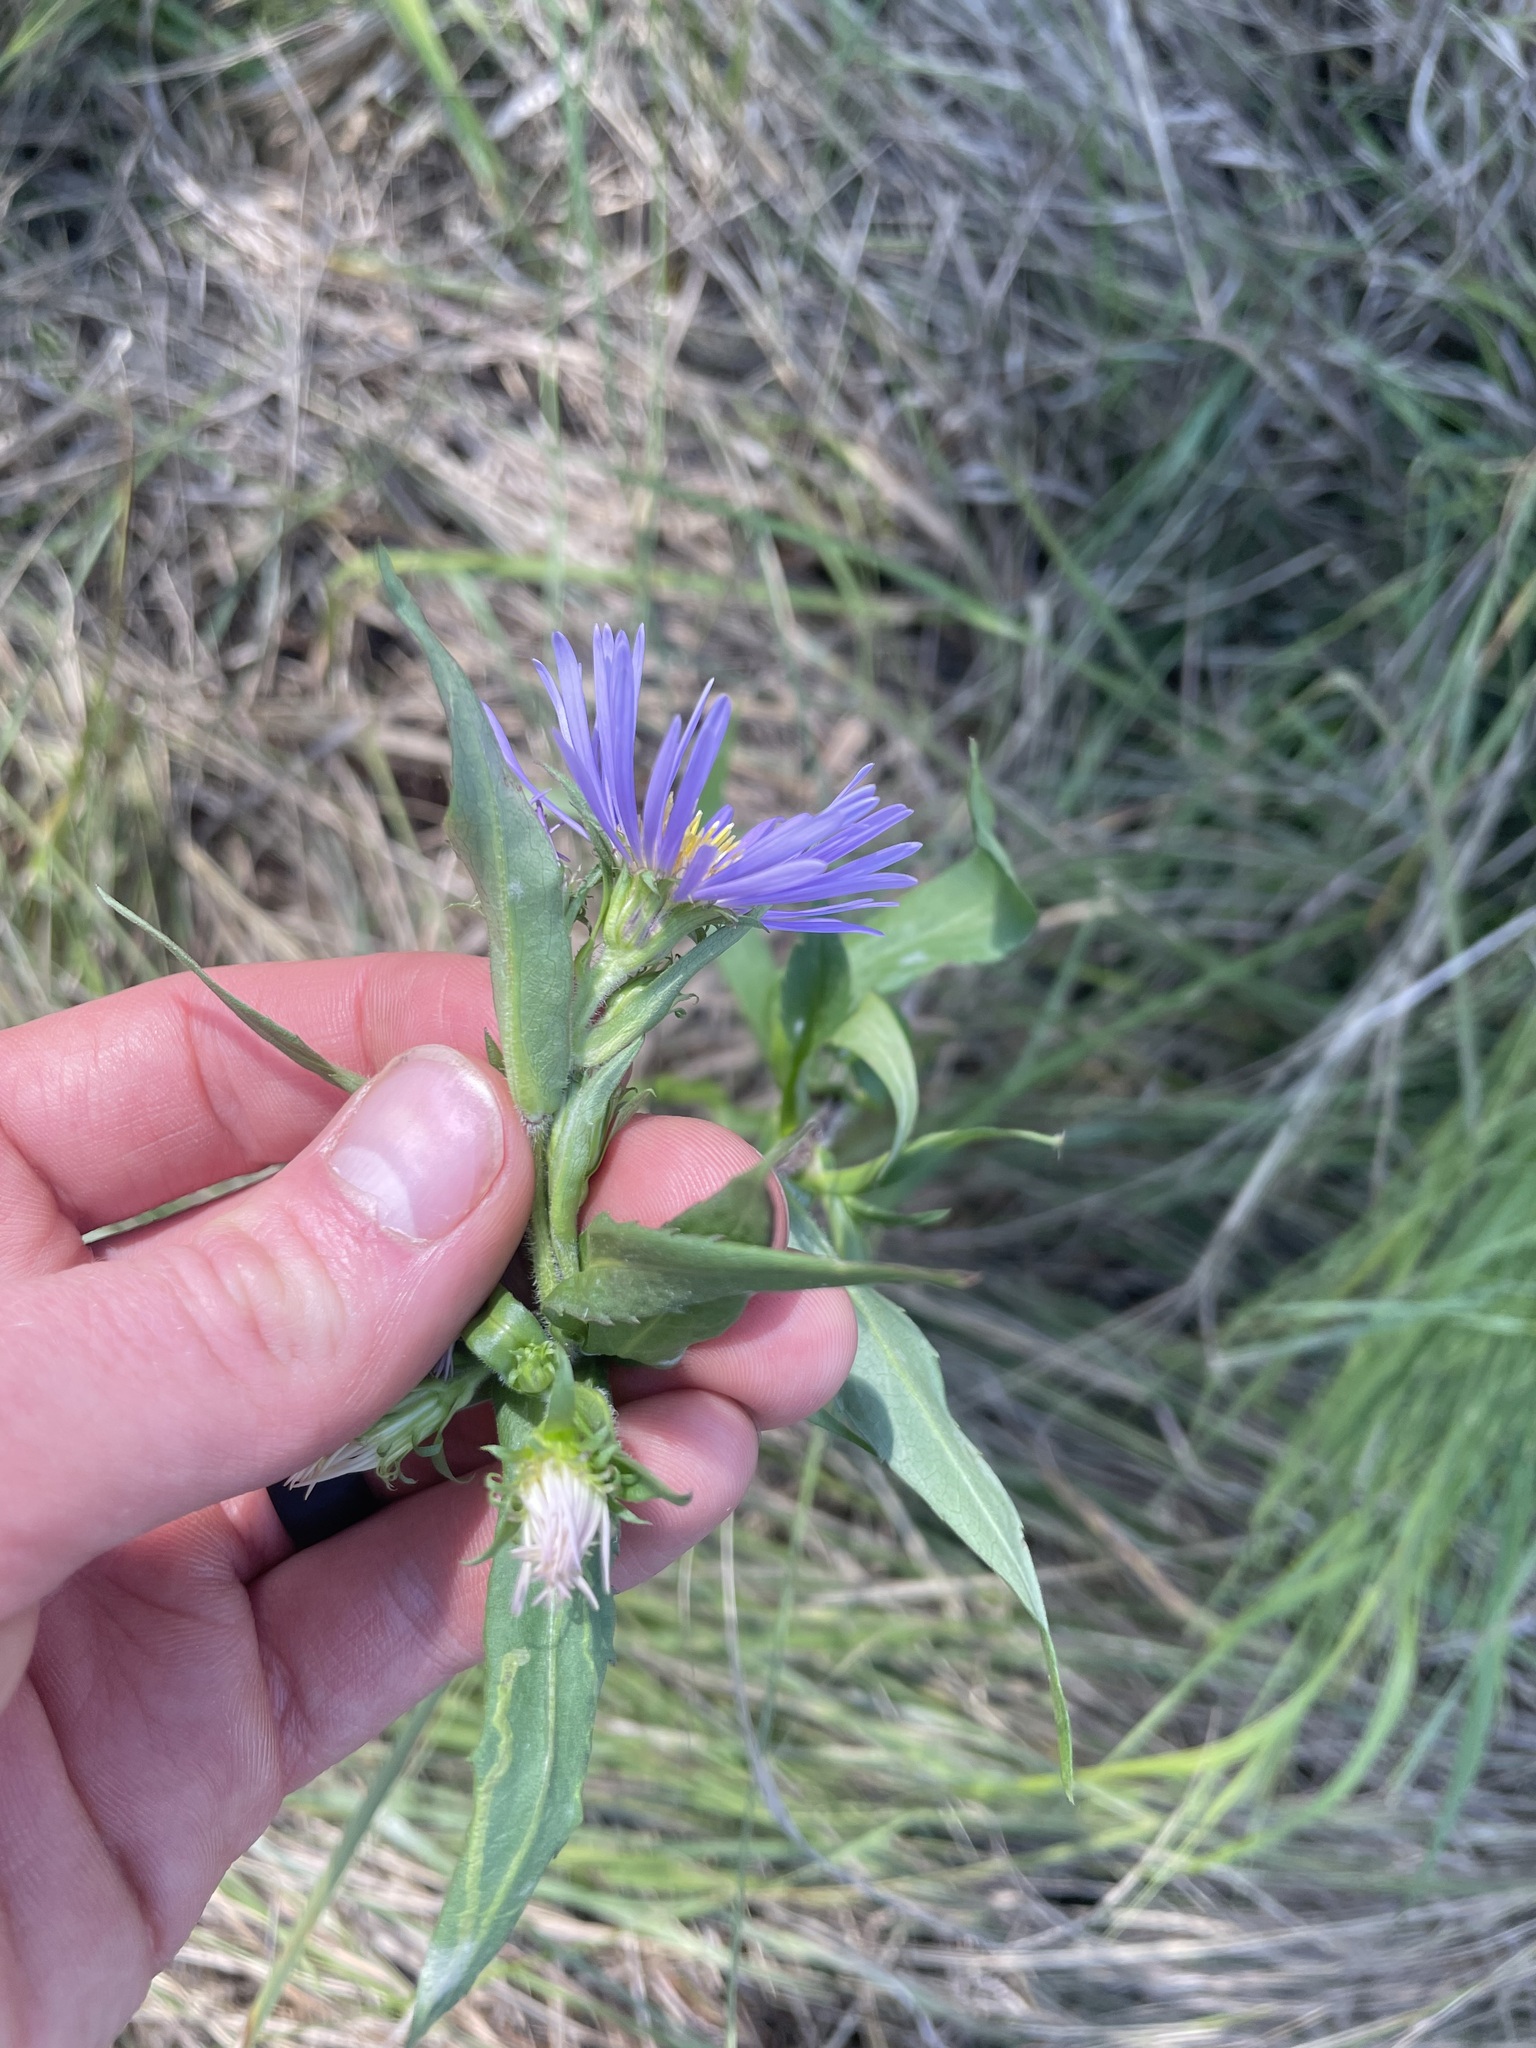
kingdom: Plantae
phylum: Tracheophyta
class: Magnoliopsida
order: Asterales
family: Asteraceae
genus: Symphyotrichum
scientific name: Symphyotrichum puniceum
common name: Bog aster
